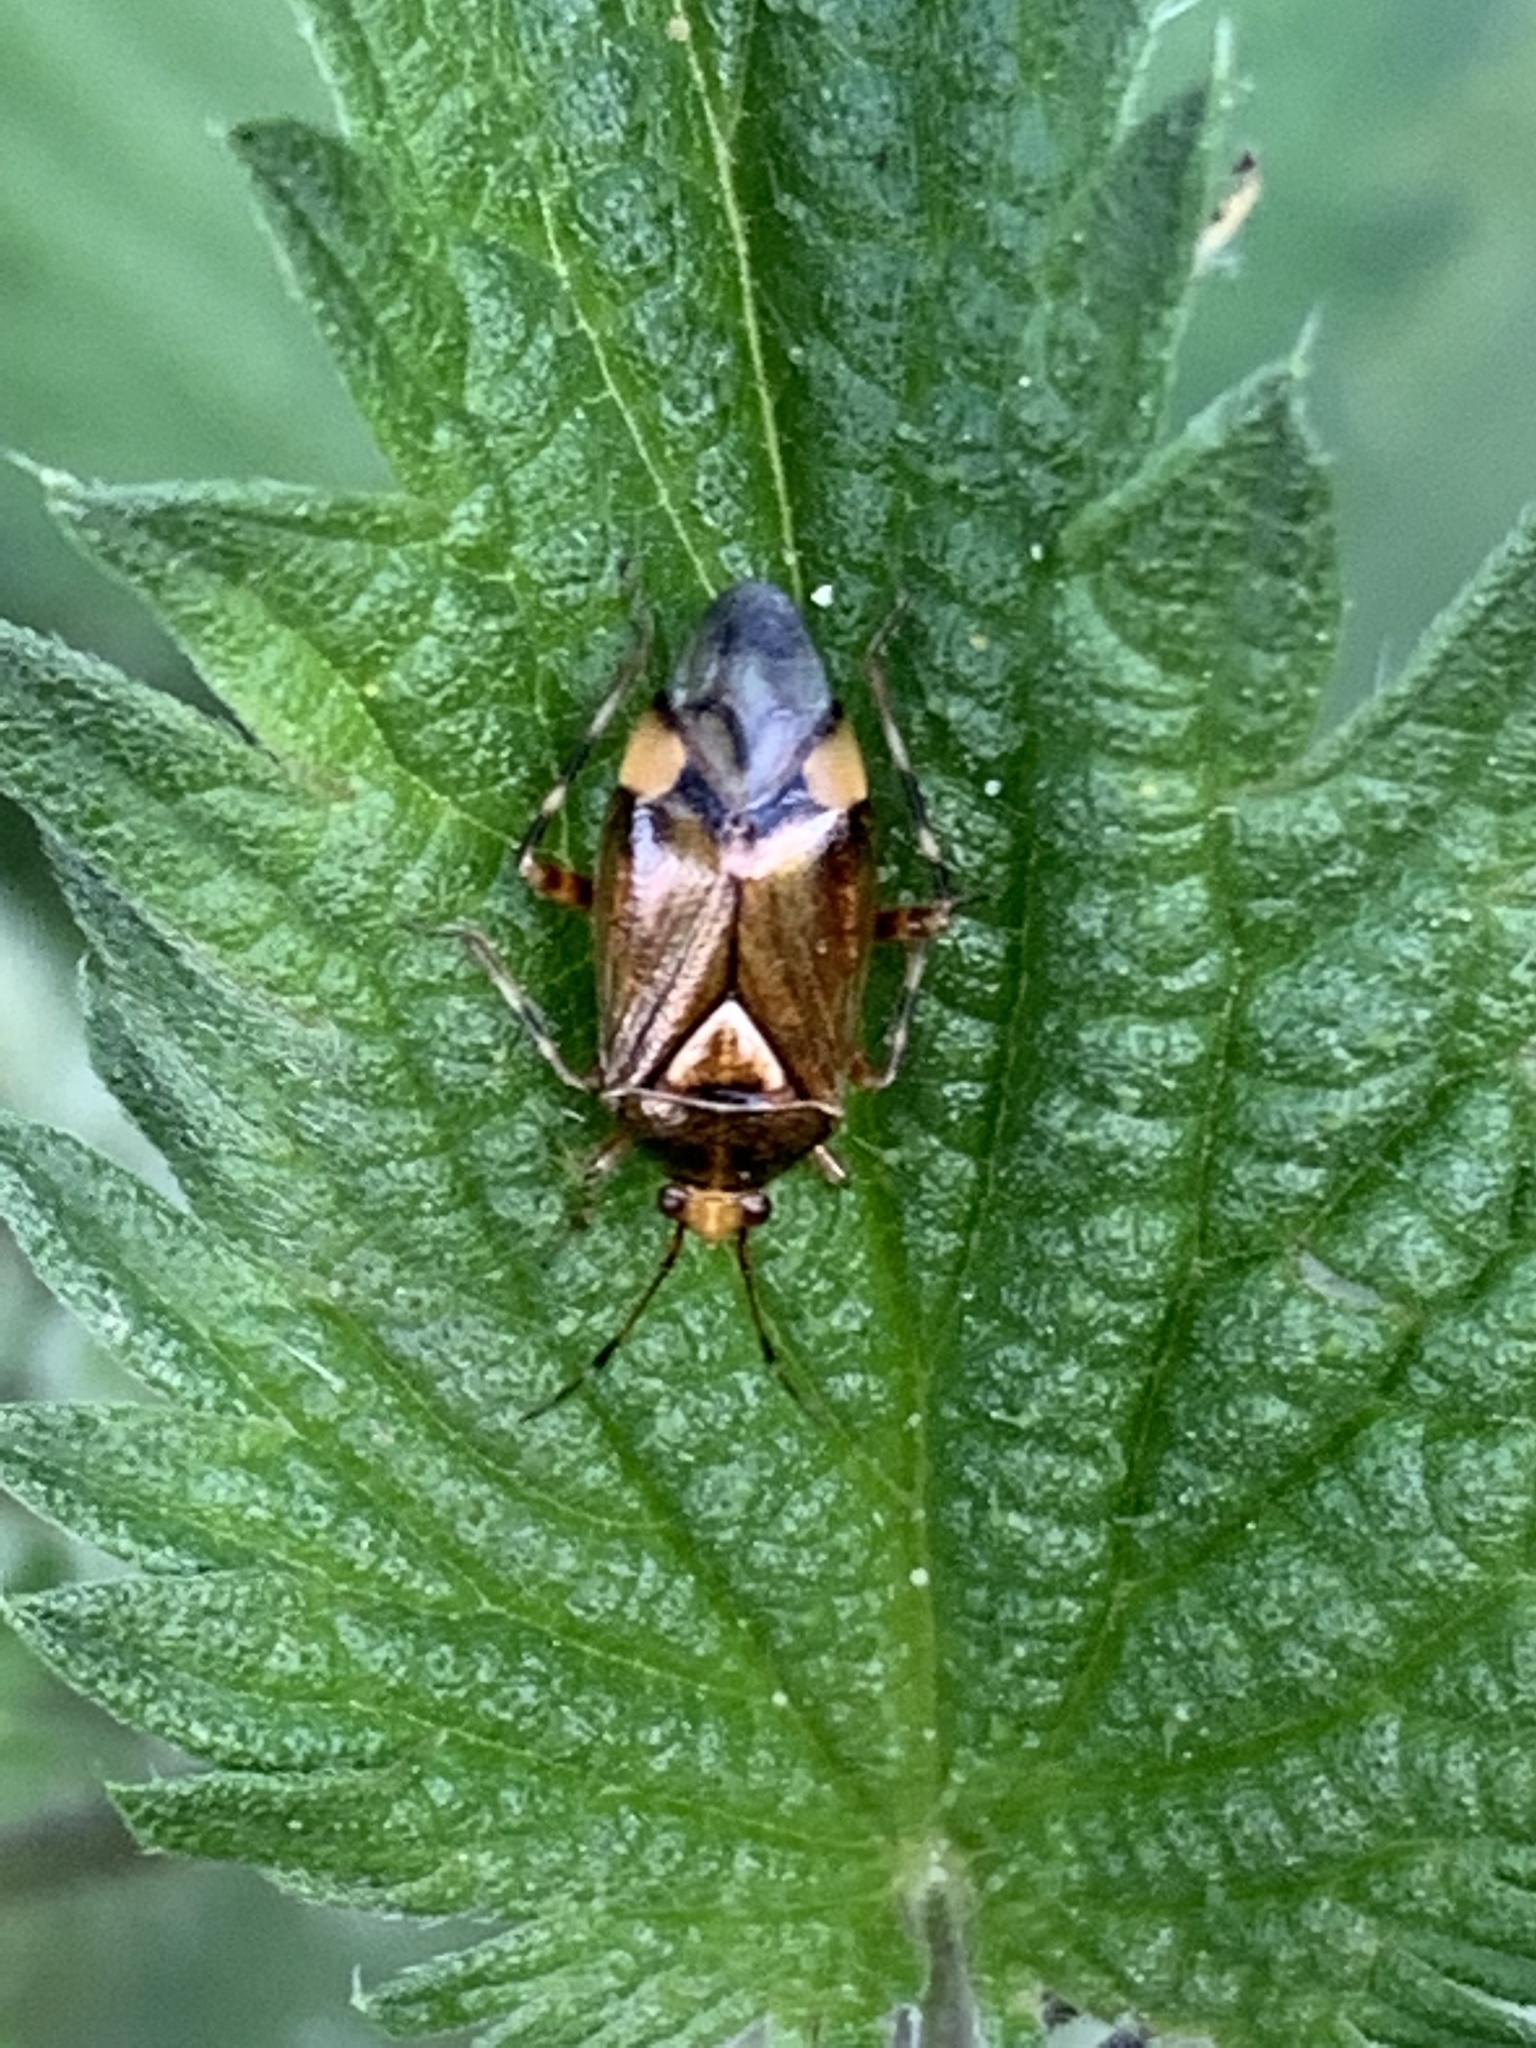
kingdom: Animalia
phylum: Arthropoda
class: Insecta
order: Hemiptera
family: Miridae
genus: Deraeocoris
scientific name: Deraeocoris flavilinea
